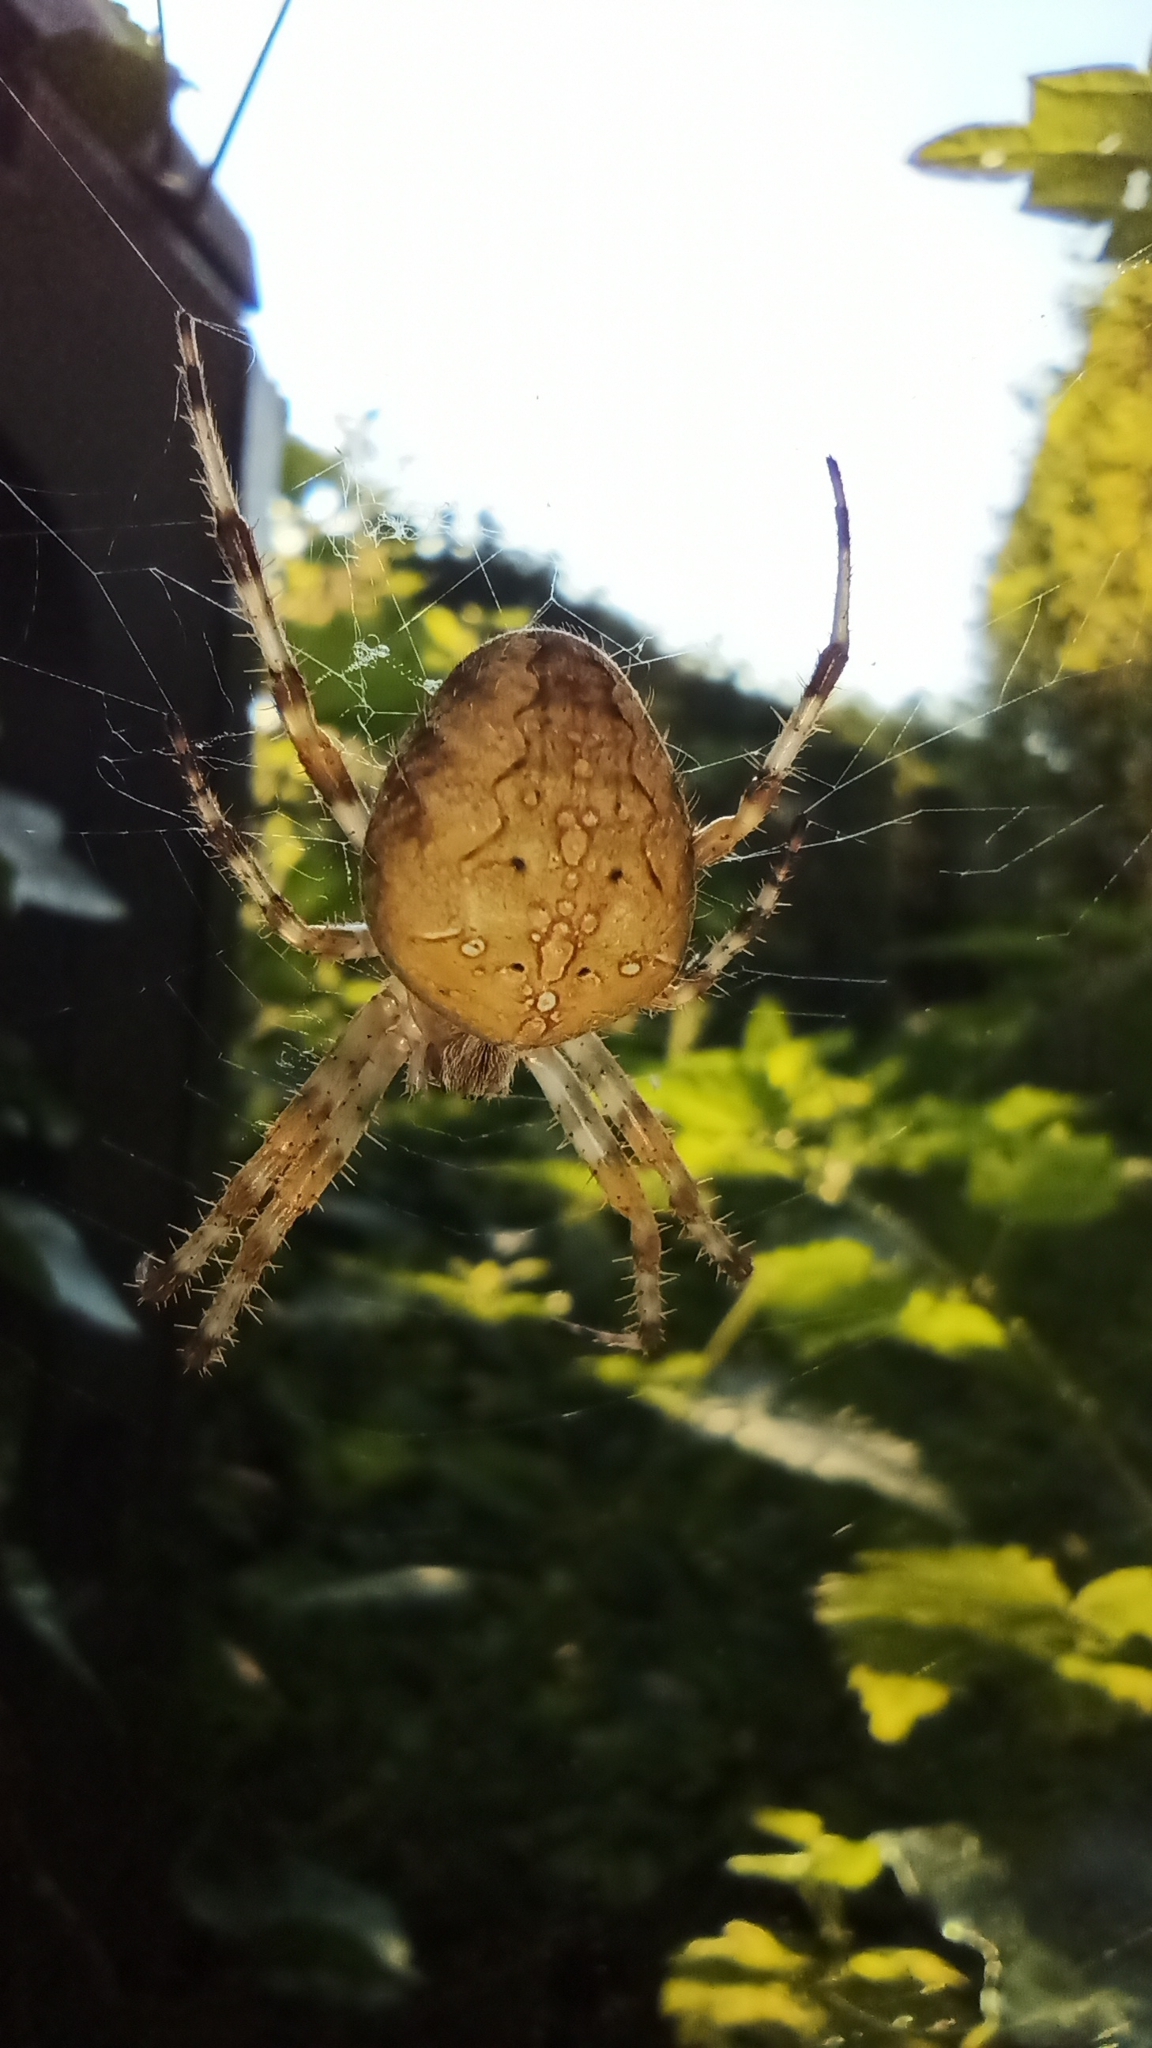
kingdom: Animalia
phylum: Arthropoda
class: Arachnida
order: Araneae
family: Araneidae
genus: Araneus
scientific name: Araneus diadematus
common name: Cross orbweaver
